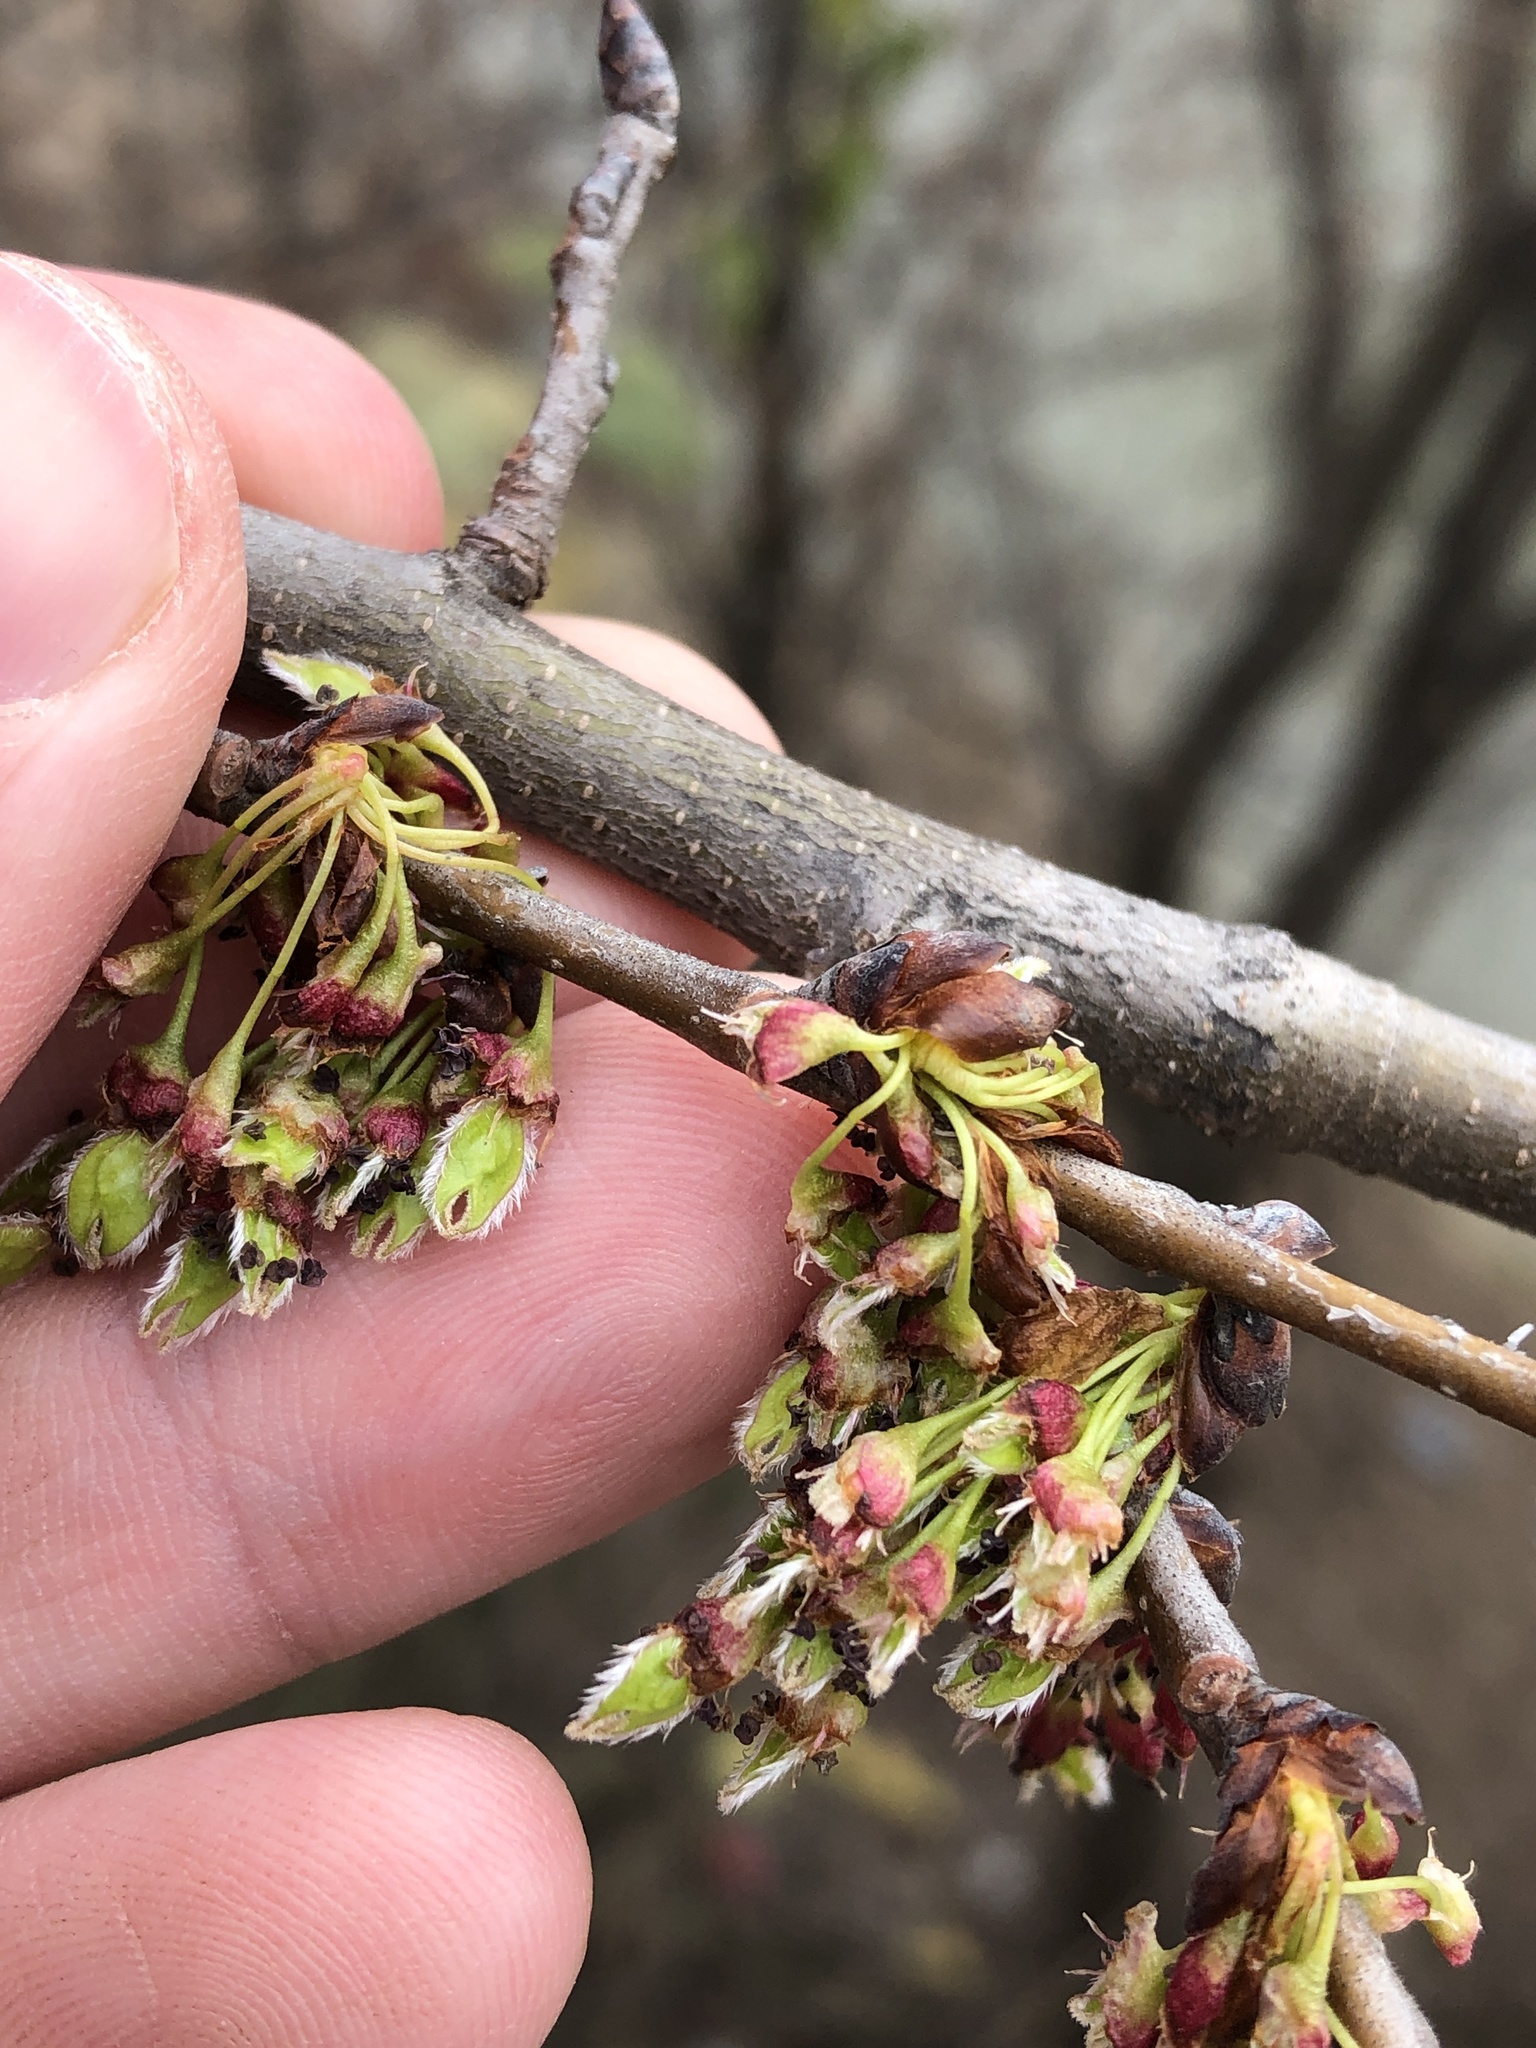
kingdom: Plantae
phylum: Tracheophyta
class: Magnoliopsida
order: Rosales
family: Ulmaceae
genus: Ulmus
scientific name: Ulmus americana
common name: American elm
